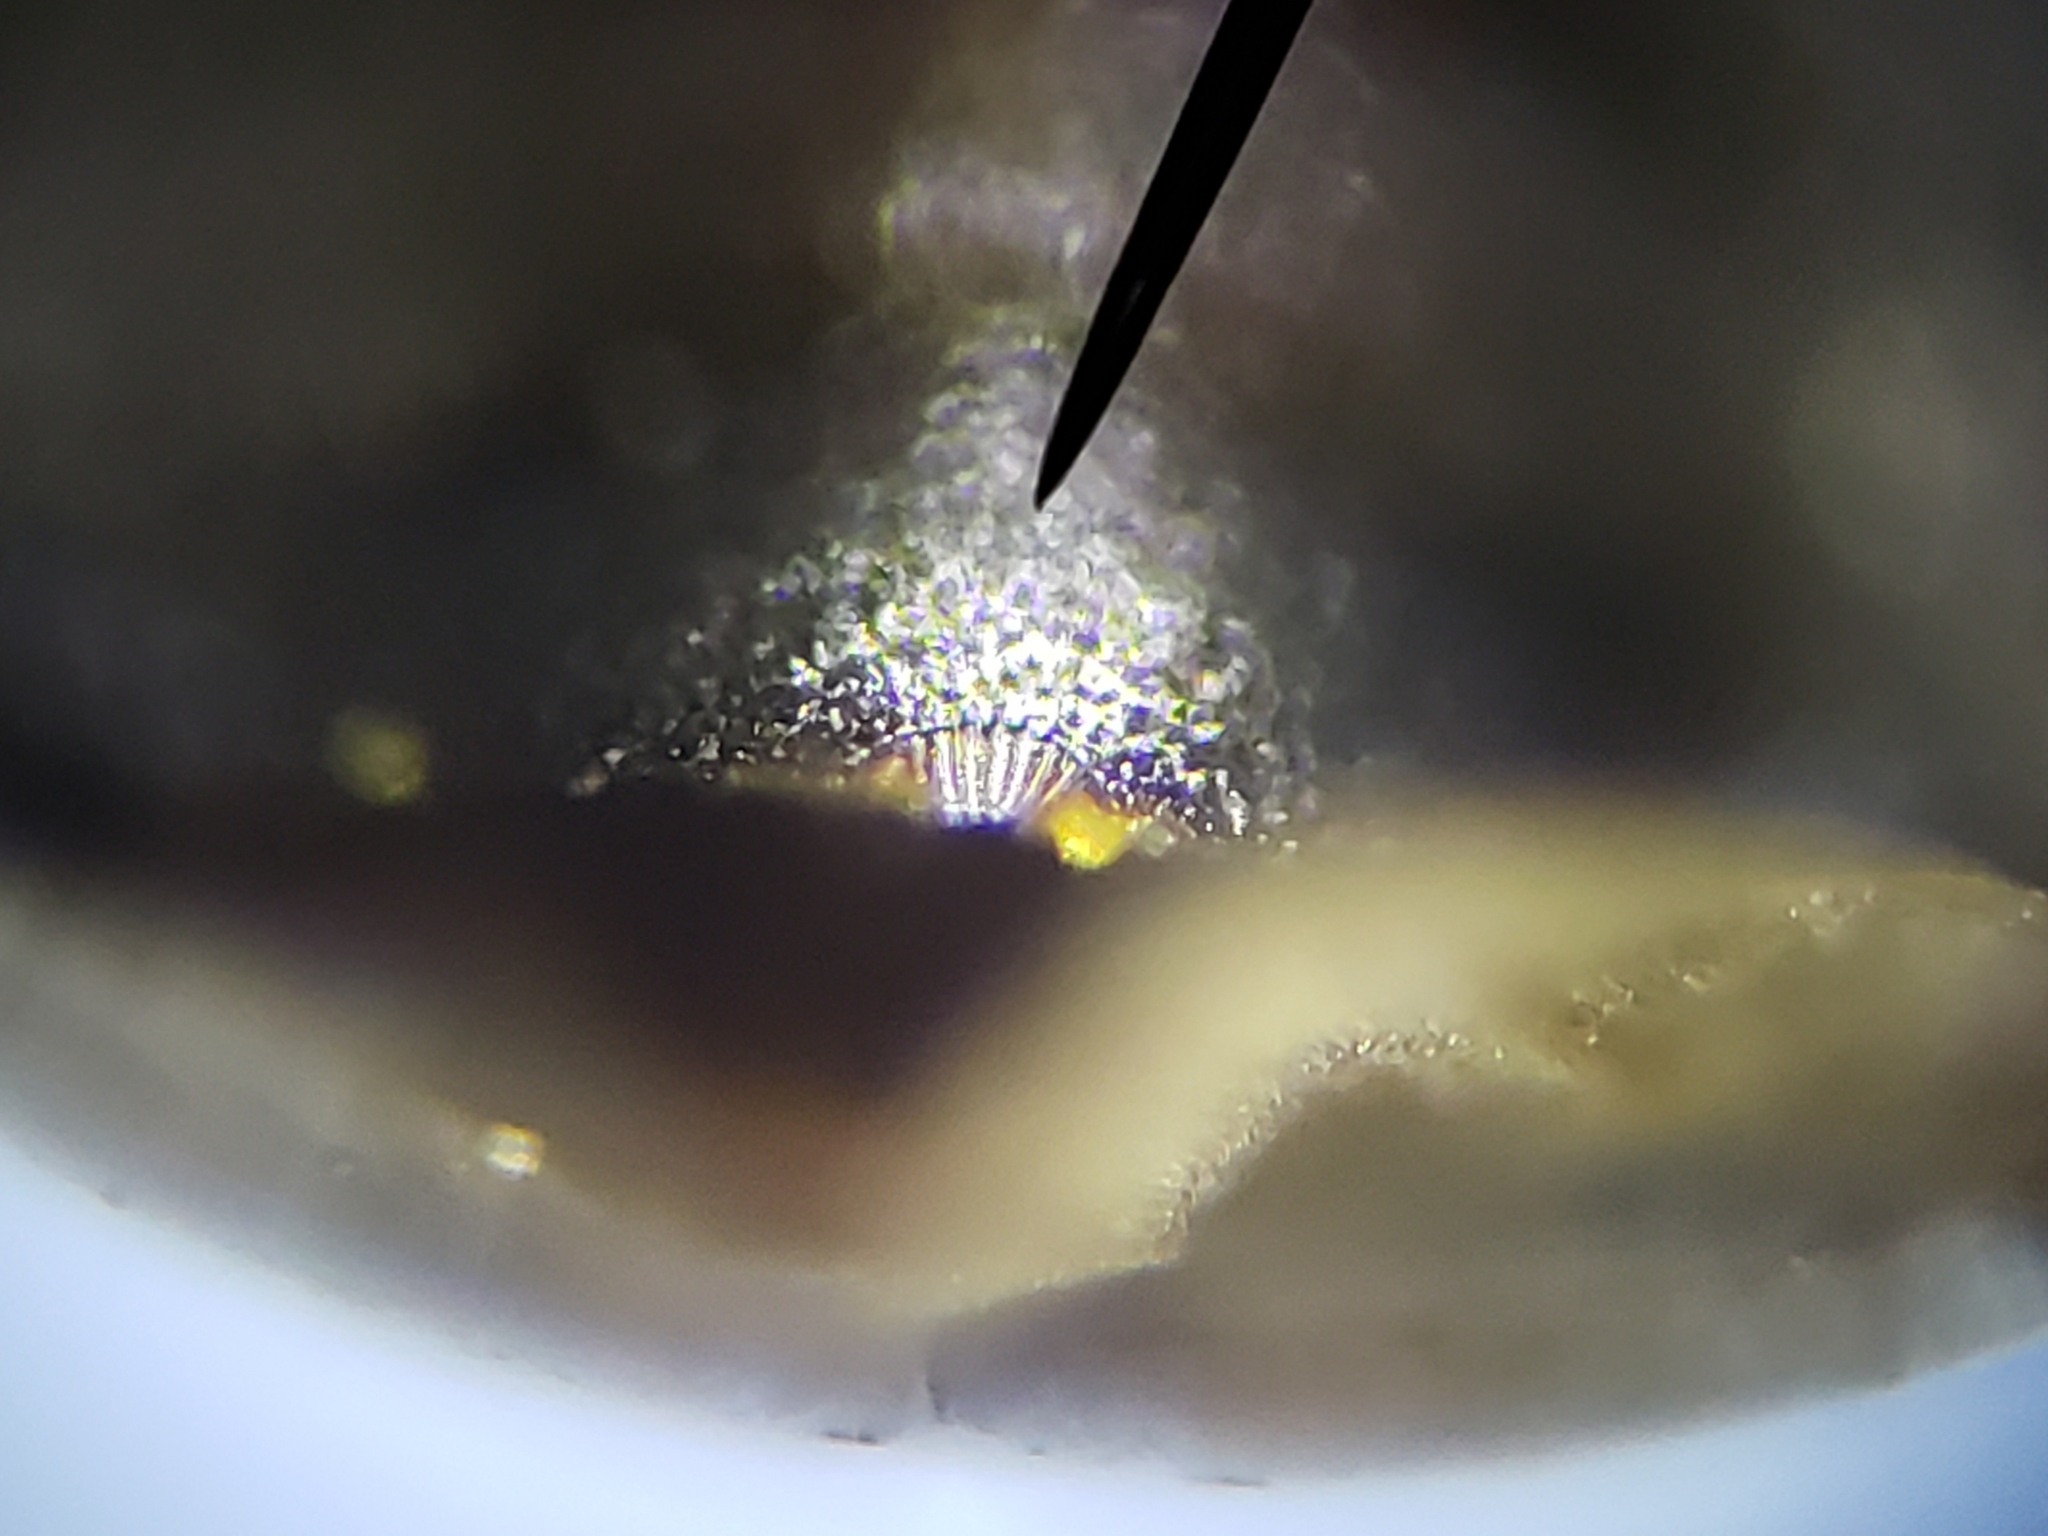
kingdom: Animalia
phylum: Arthropoda
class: Insecta
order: Coleoptera
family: Hydrophilidae
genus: Enochrus
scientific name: Enochrus pygmaeus
